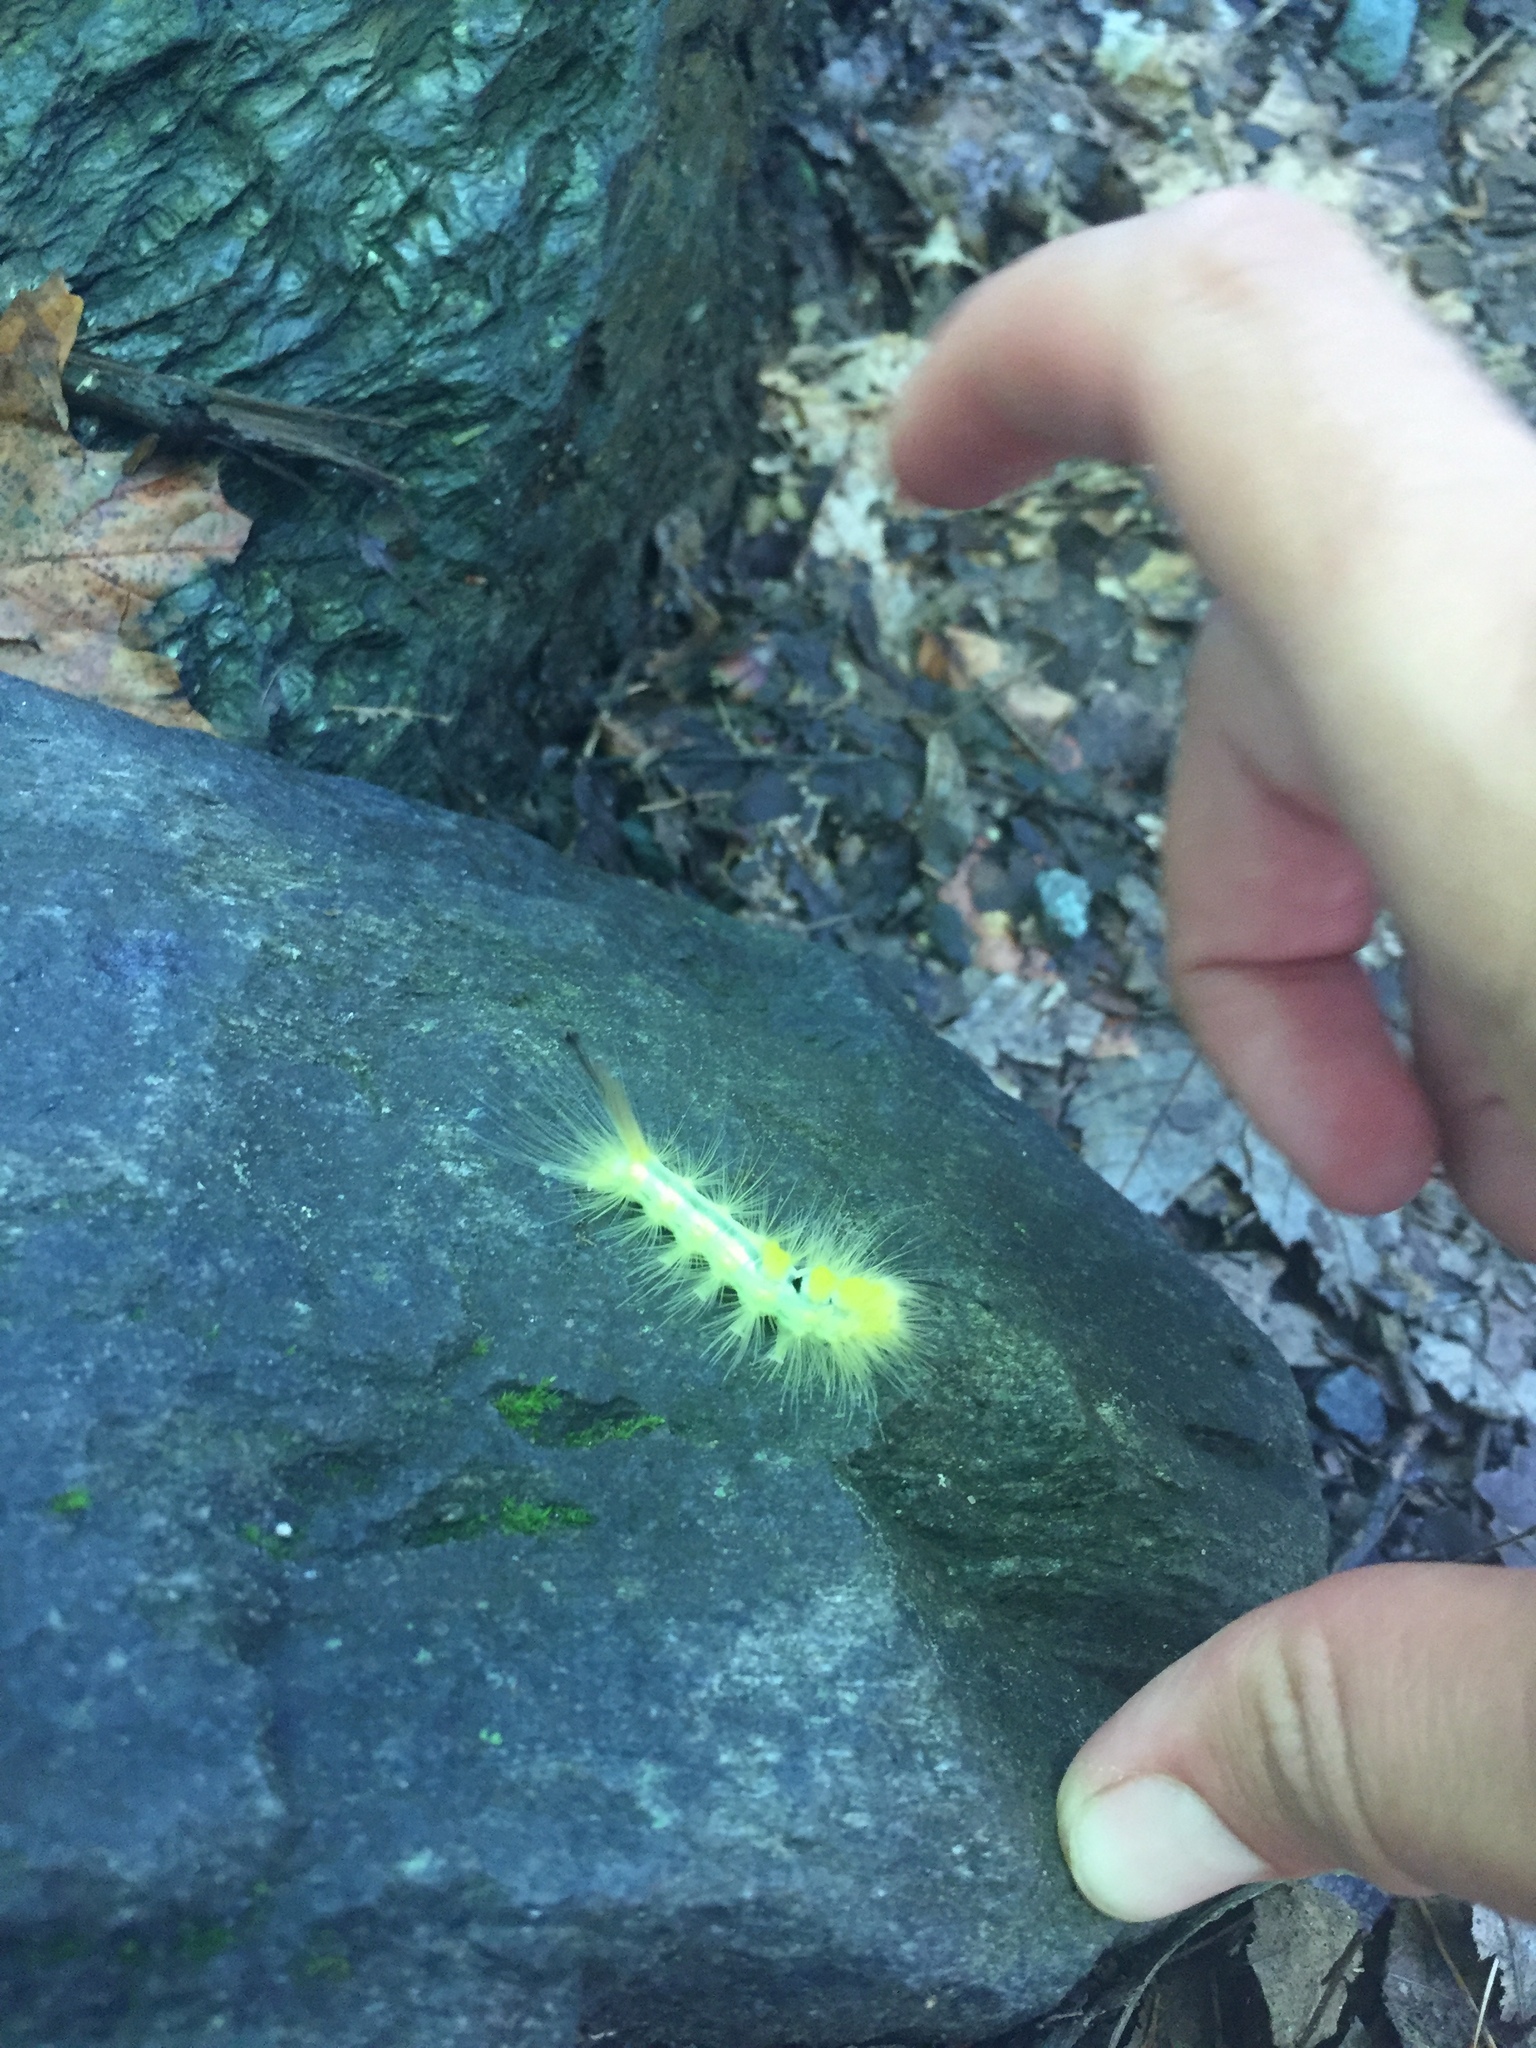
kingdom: Animalia
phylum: Arthropoda
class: Insecta
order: Lepidoptera
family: Erebidae
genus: Orgyia
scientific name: Orgyia definita
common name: Definite tussock moth
